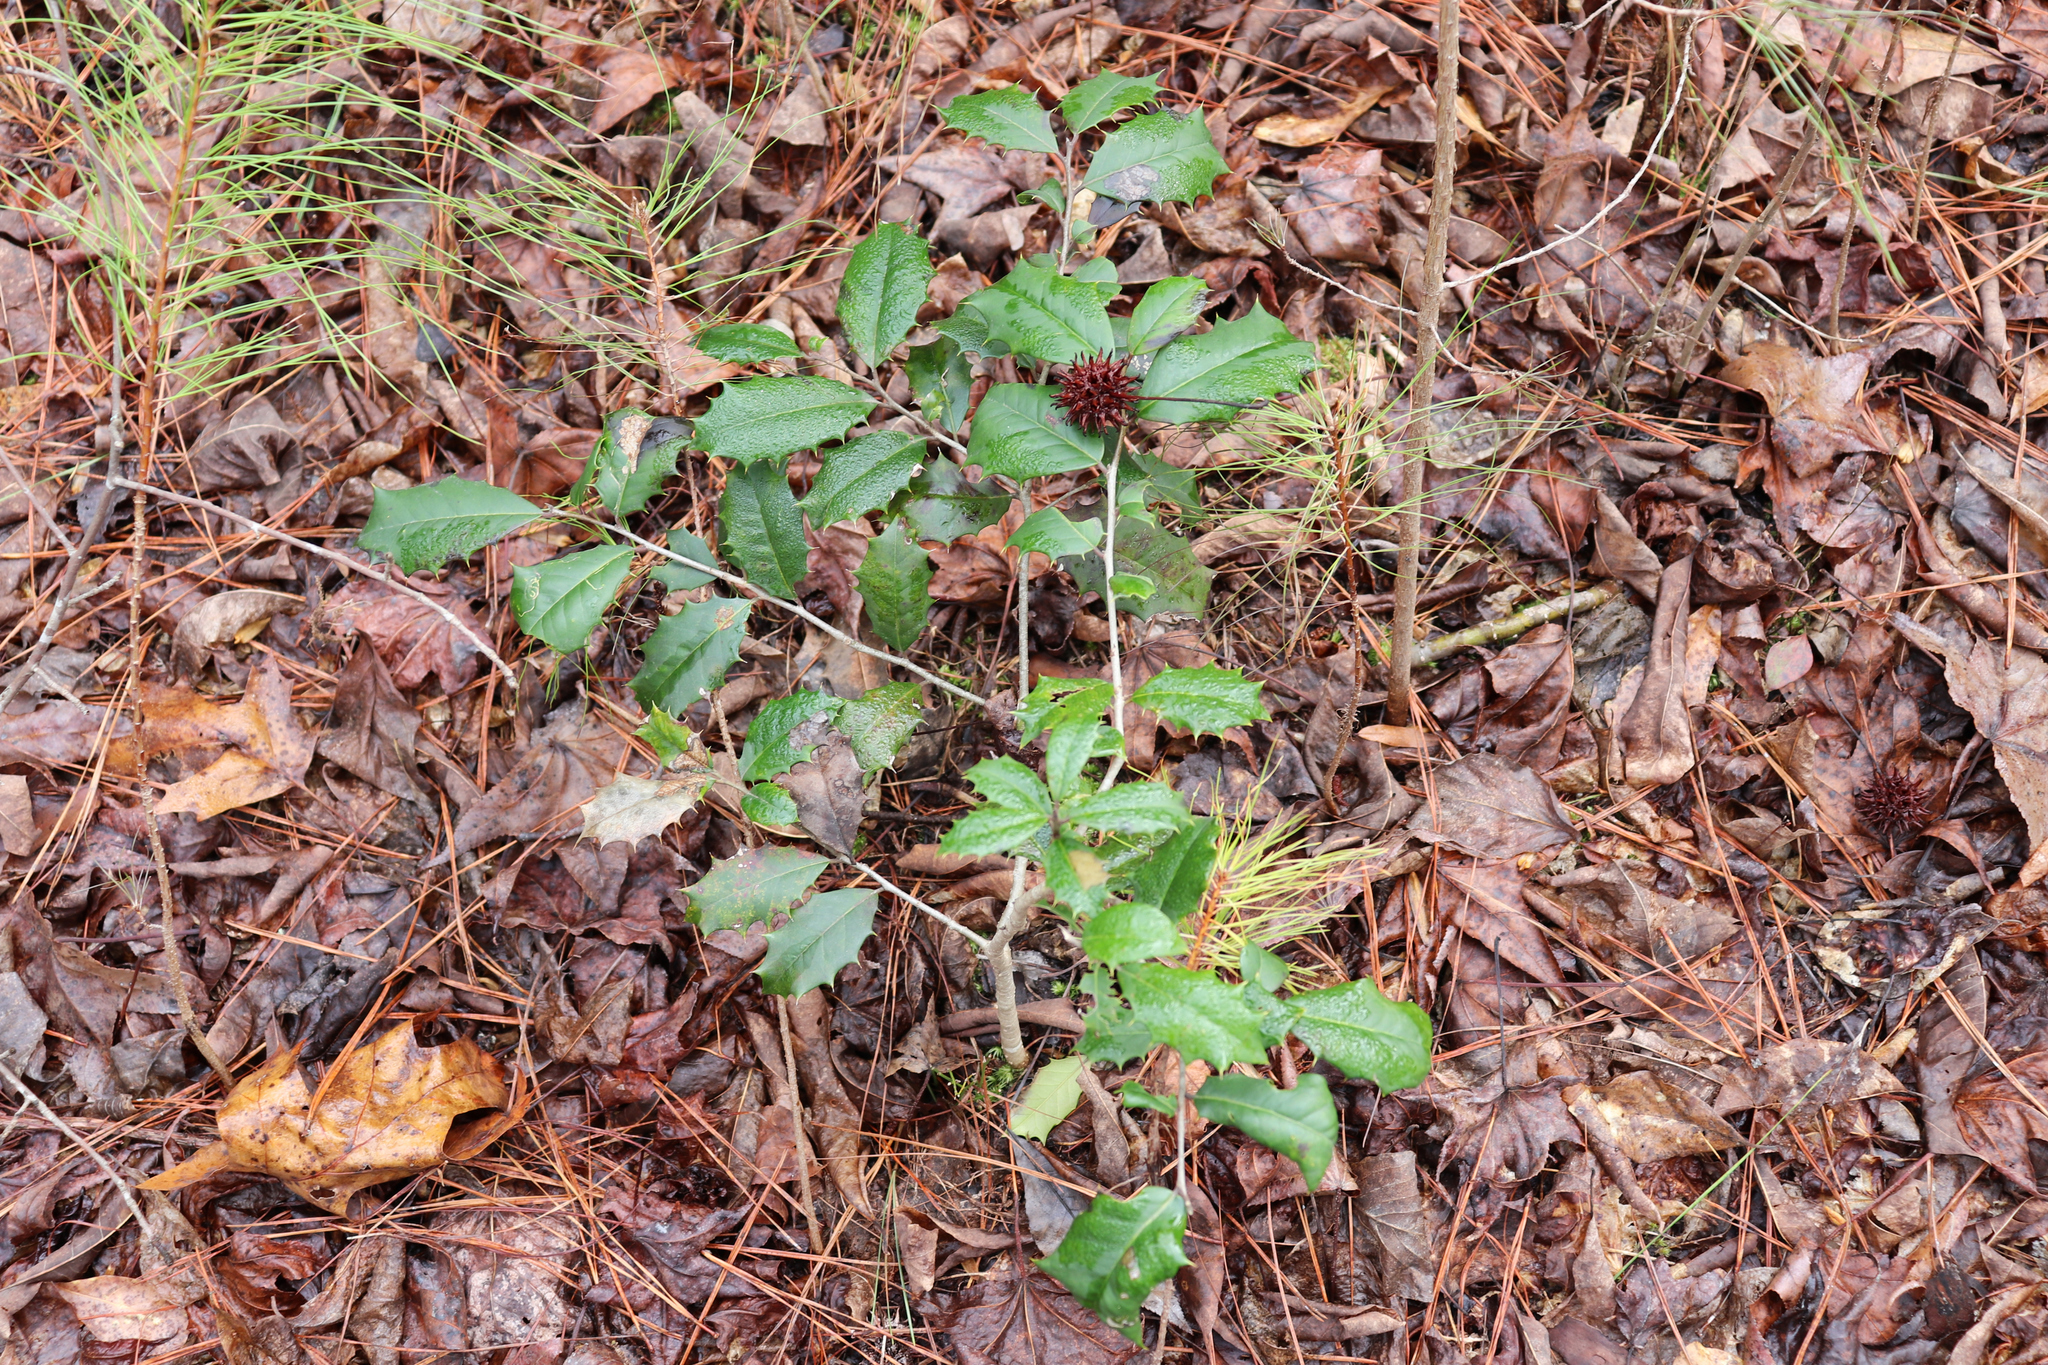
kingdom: Plantae
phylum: Tracheophyta
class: Magnoliopsida
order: Aquifoliales
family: Aquifoliaceae
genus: Ilex
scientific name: Ilex opaca
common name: American holly
